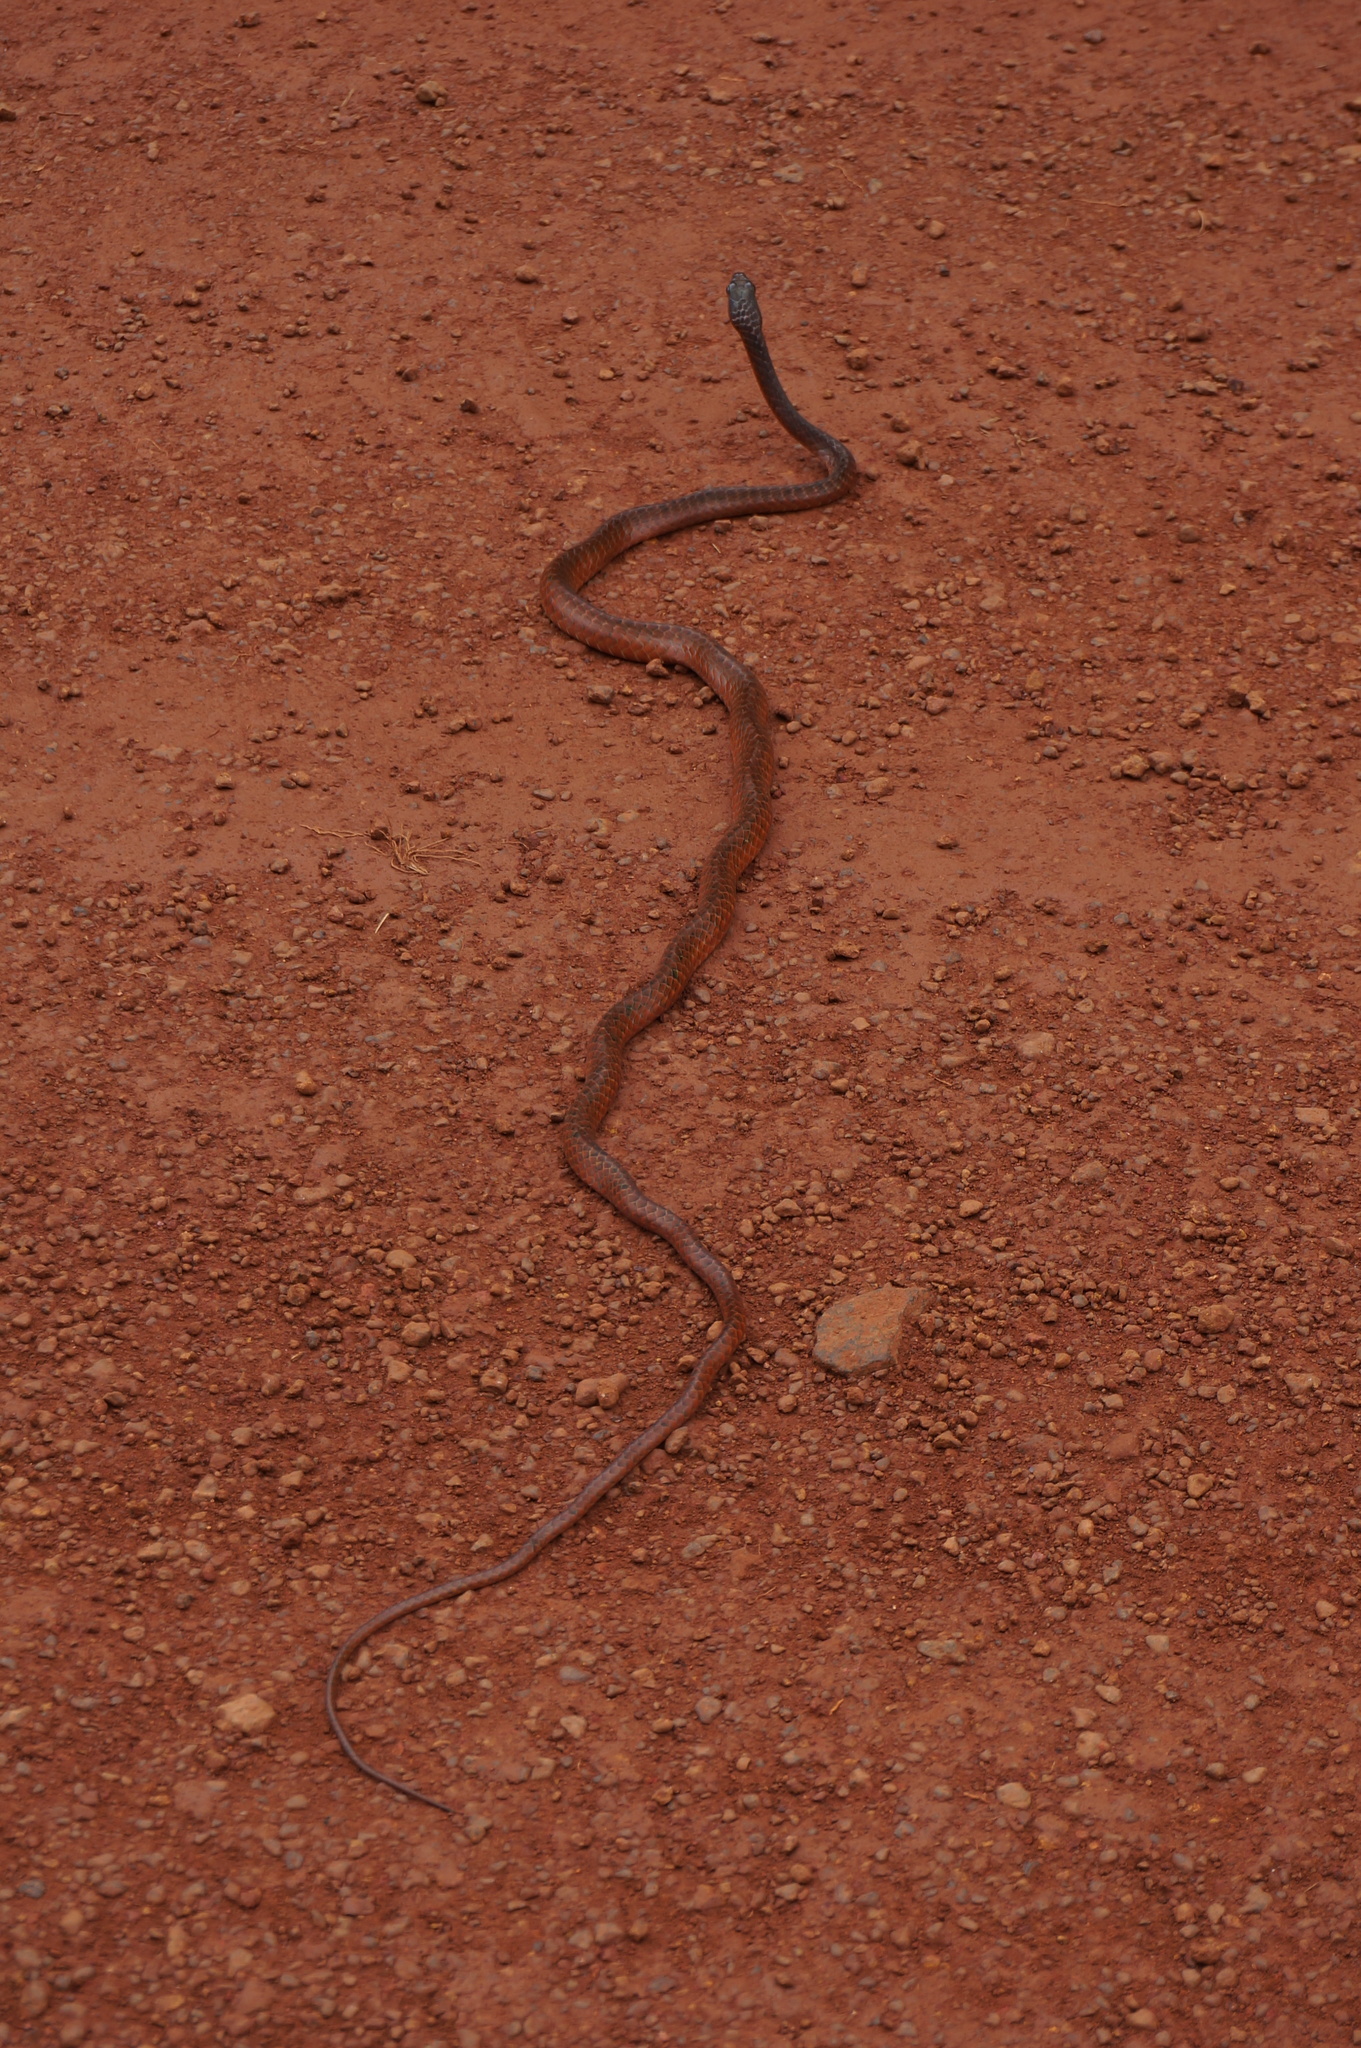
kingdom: Animalia
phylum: Chordata
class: Squamata
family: Colubridae
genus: Chironius
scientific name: Chironius scurrulus
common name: Wagler's sipo
